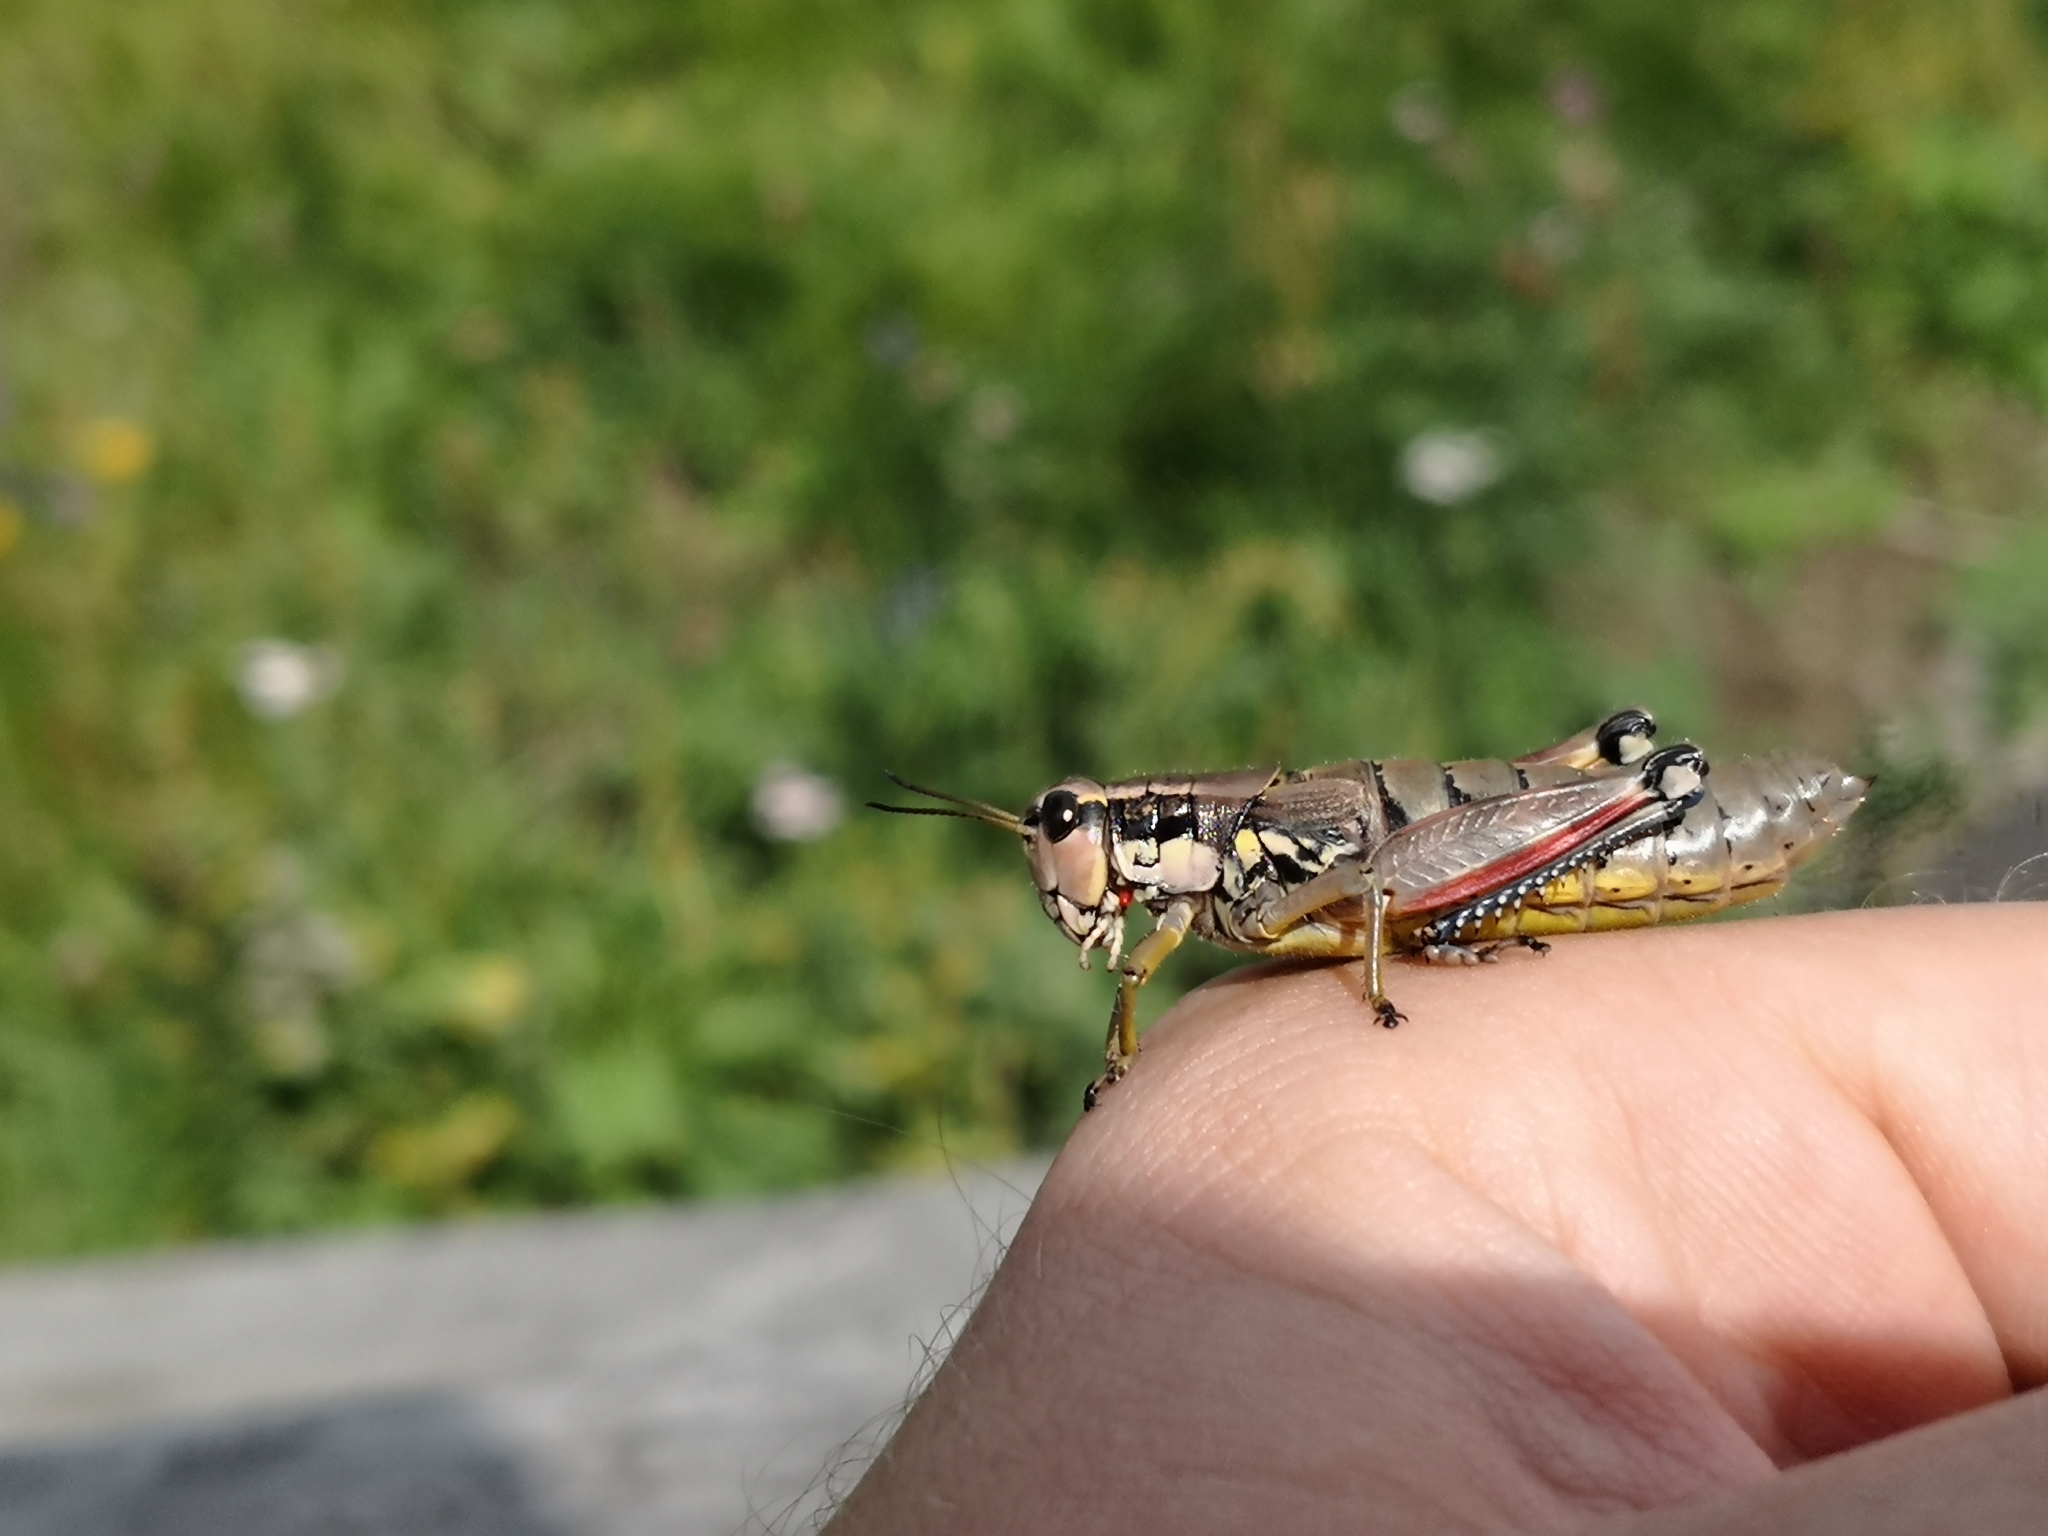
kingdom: Animalia
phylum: Arthropoda
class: Insecta
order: Orthoptera
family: Acrididae
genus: Podisma
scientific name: Podisma pedestris
